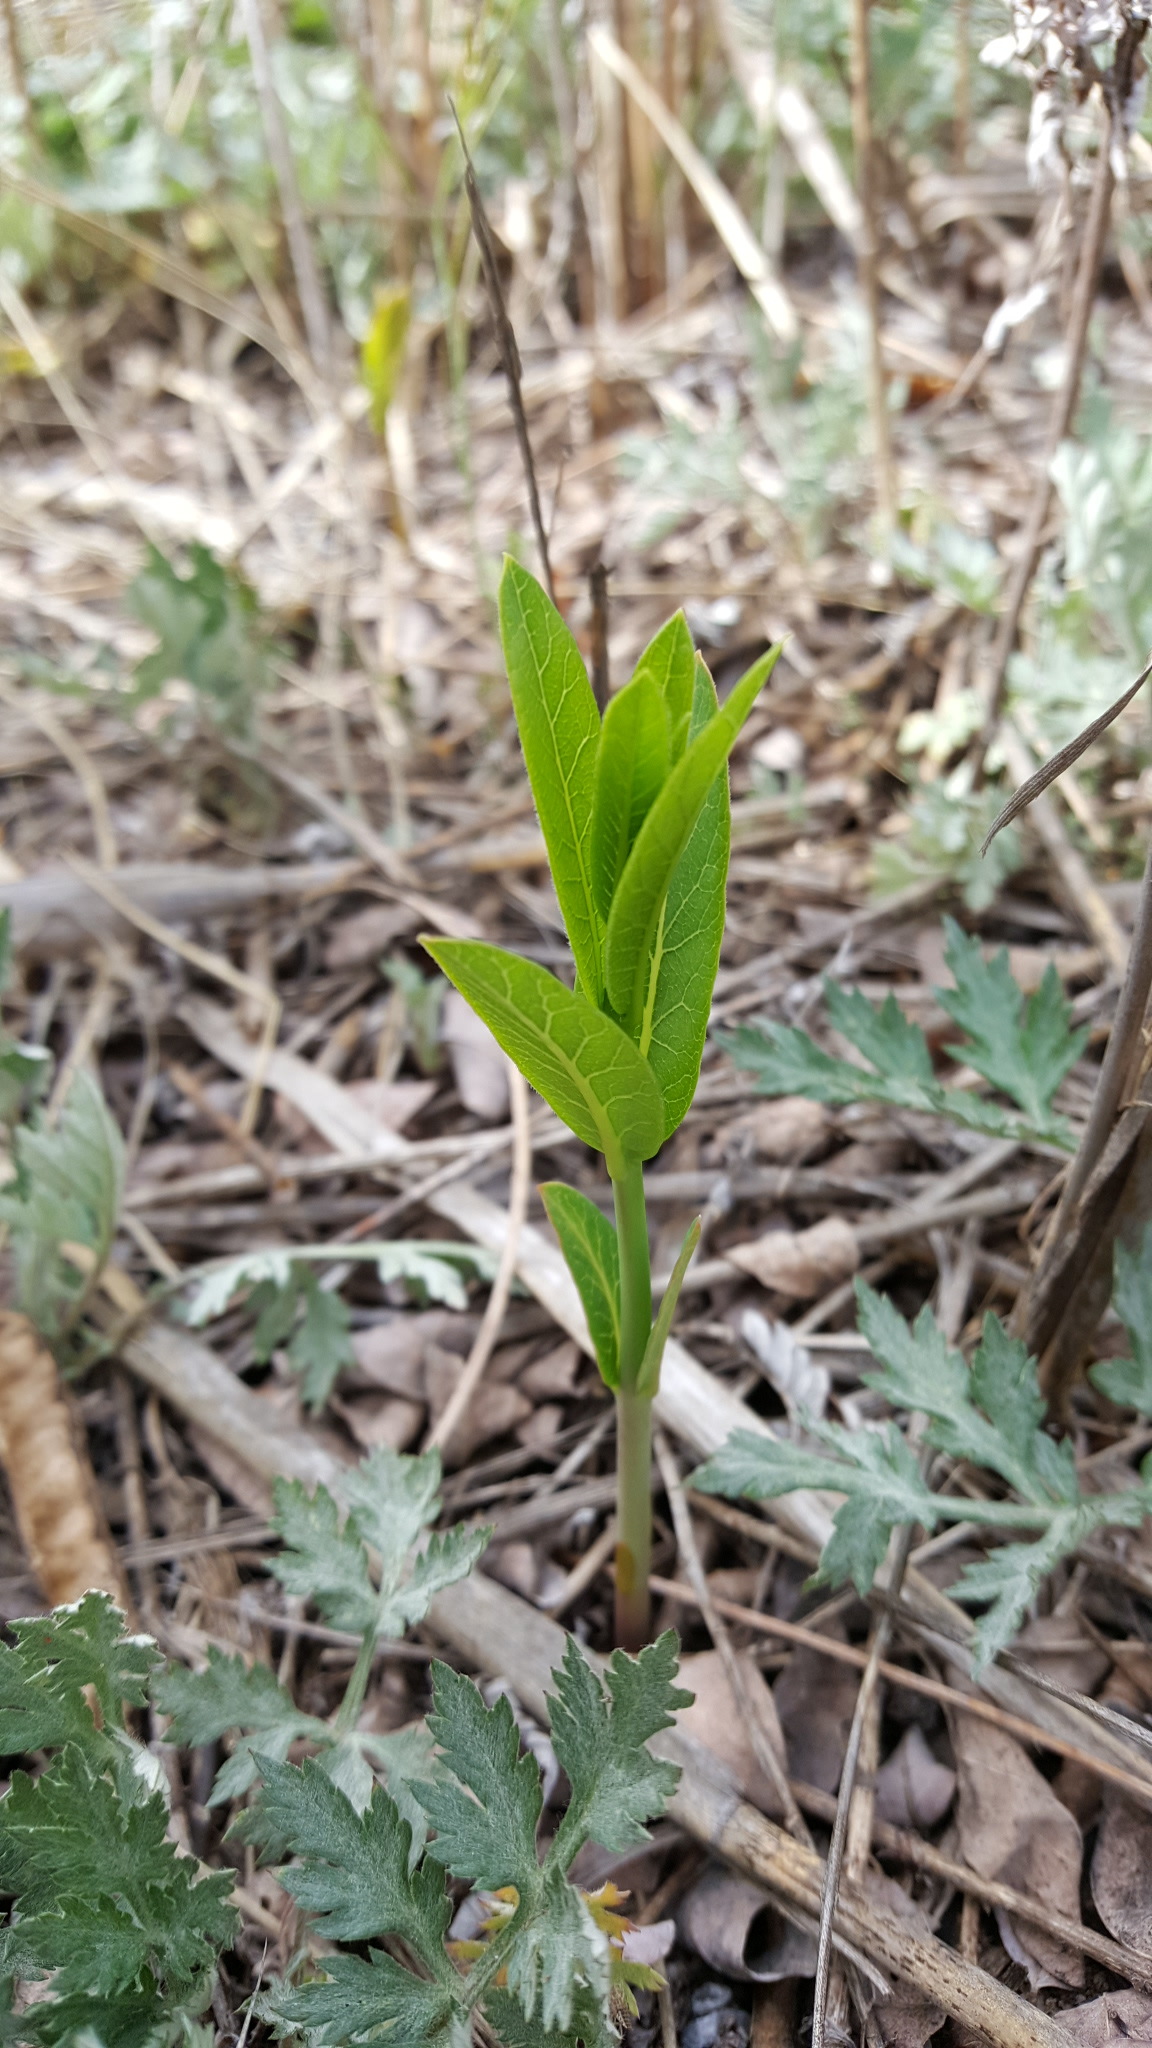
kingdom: Plantae
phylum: Tracheophyta
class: Magnoliopsida
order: Gentianales
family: Apocynaceae
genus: Apocynum
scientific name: Apocynum cannabinum
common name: Hemp dogbane
